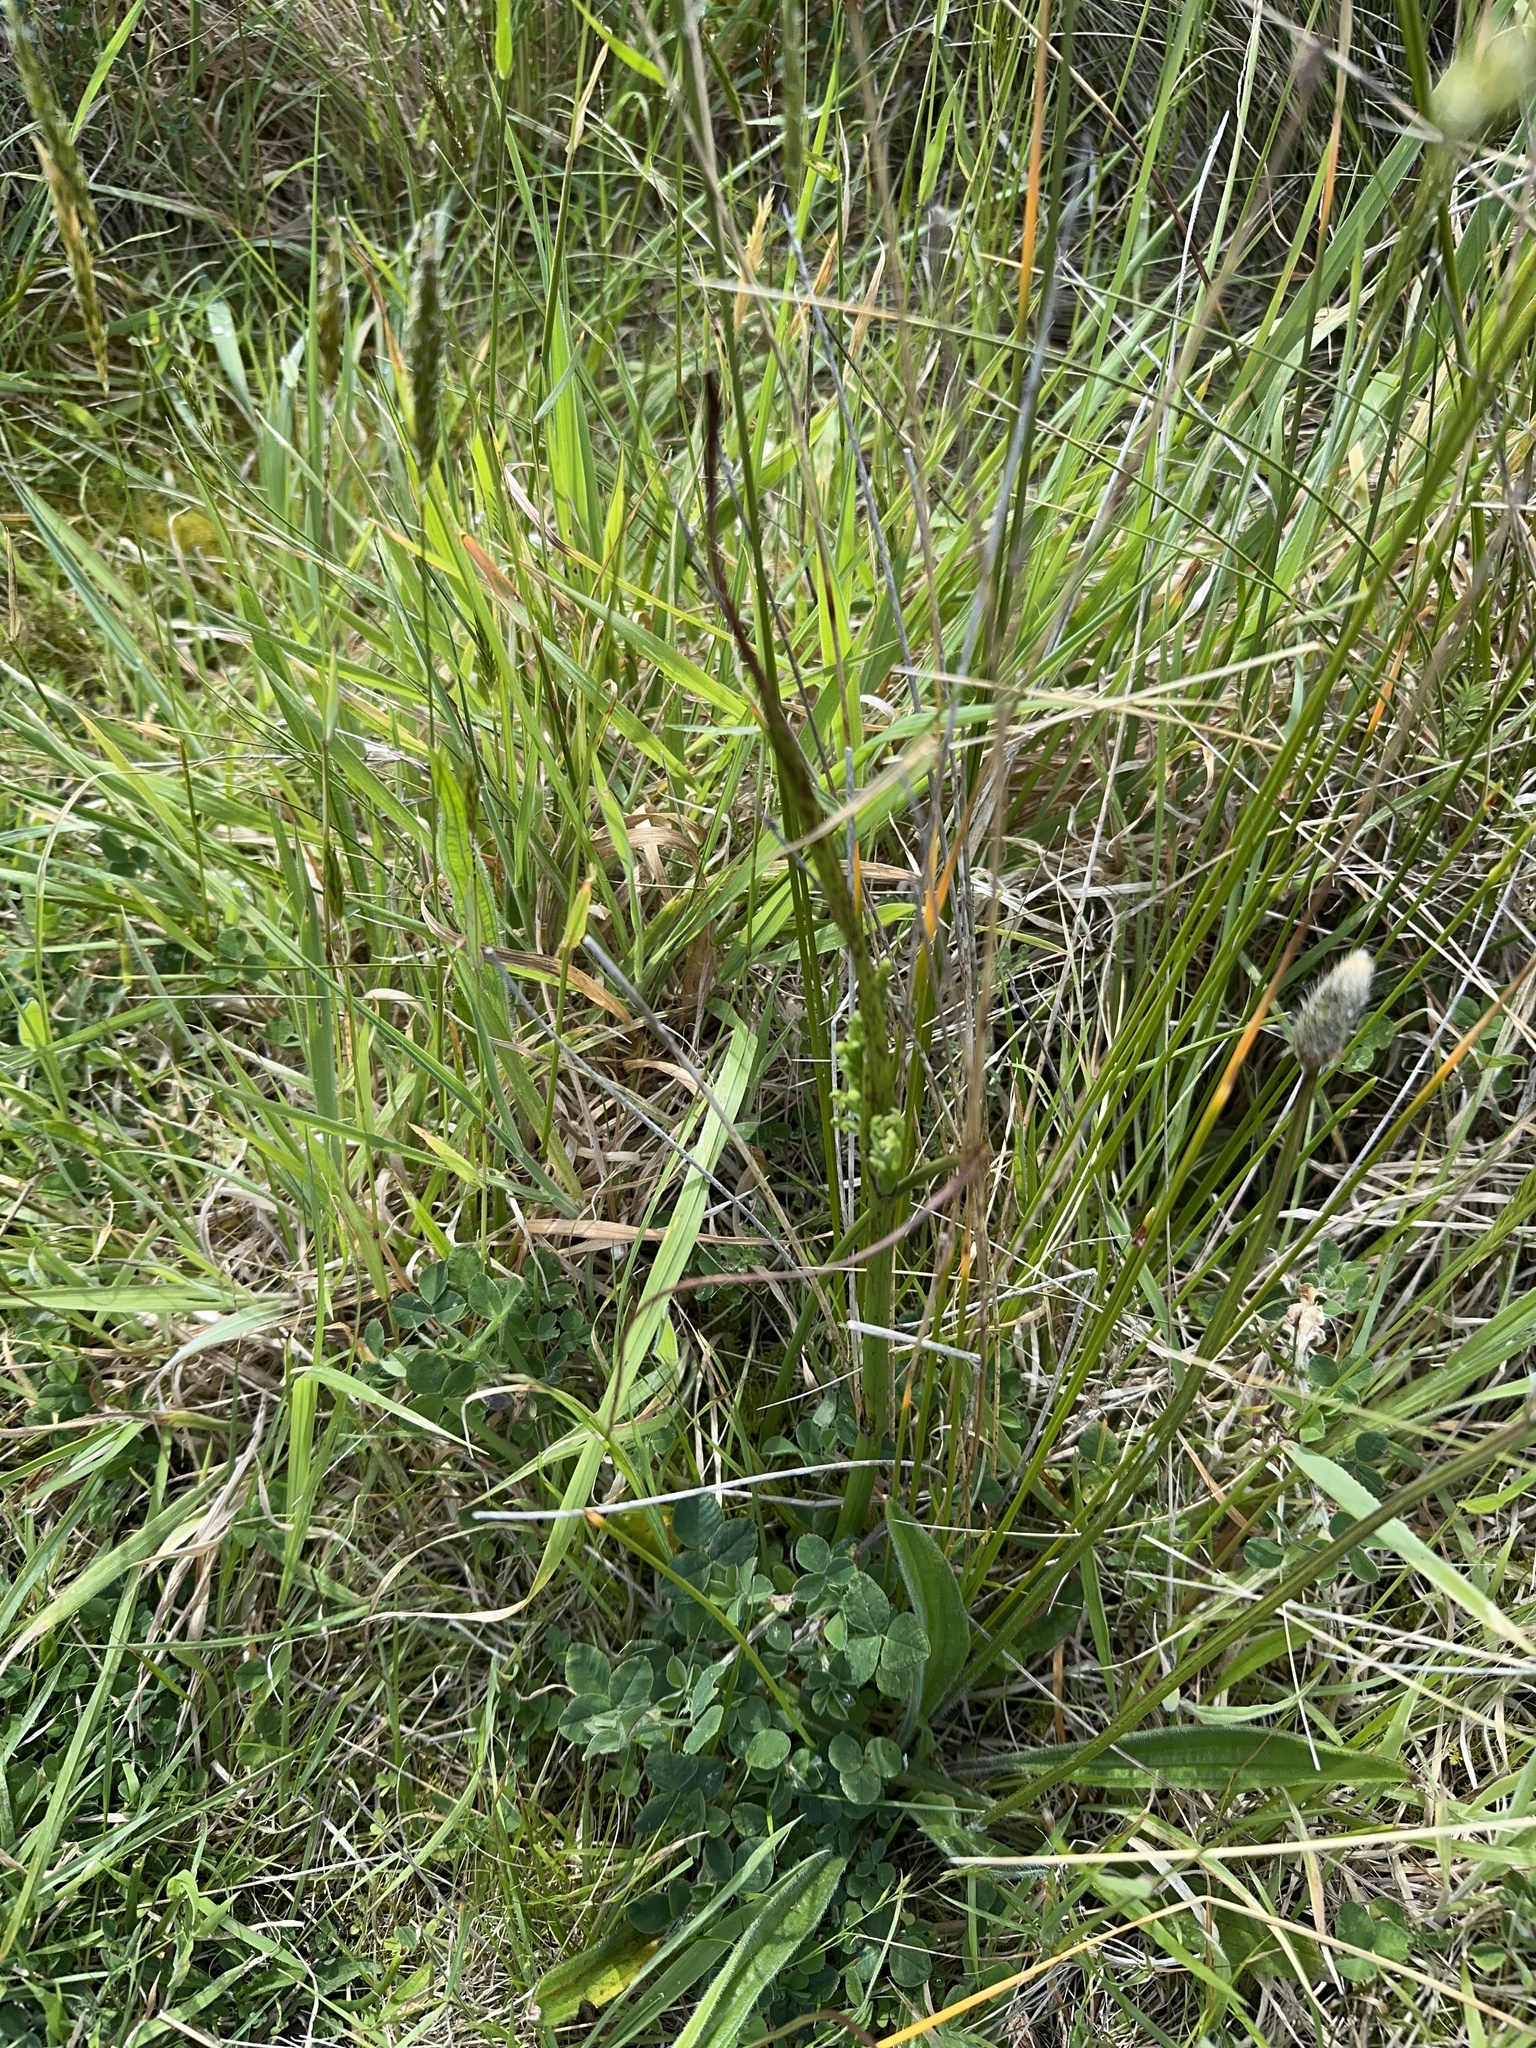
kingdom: Plantae
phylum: Tracheophyta
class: Liliopsida
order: Asparagales
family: Orchidaceae
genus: Microtis
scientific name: Microtis unifolia
